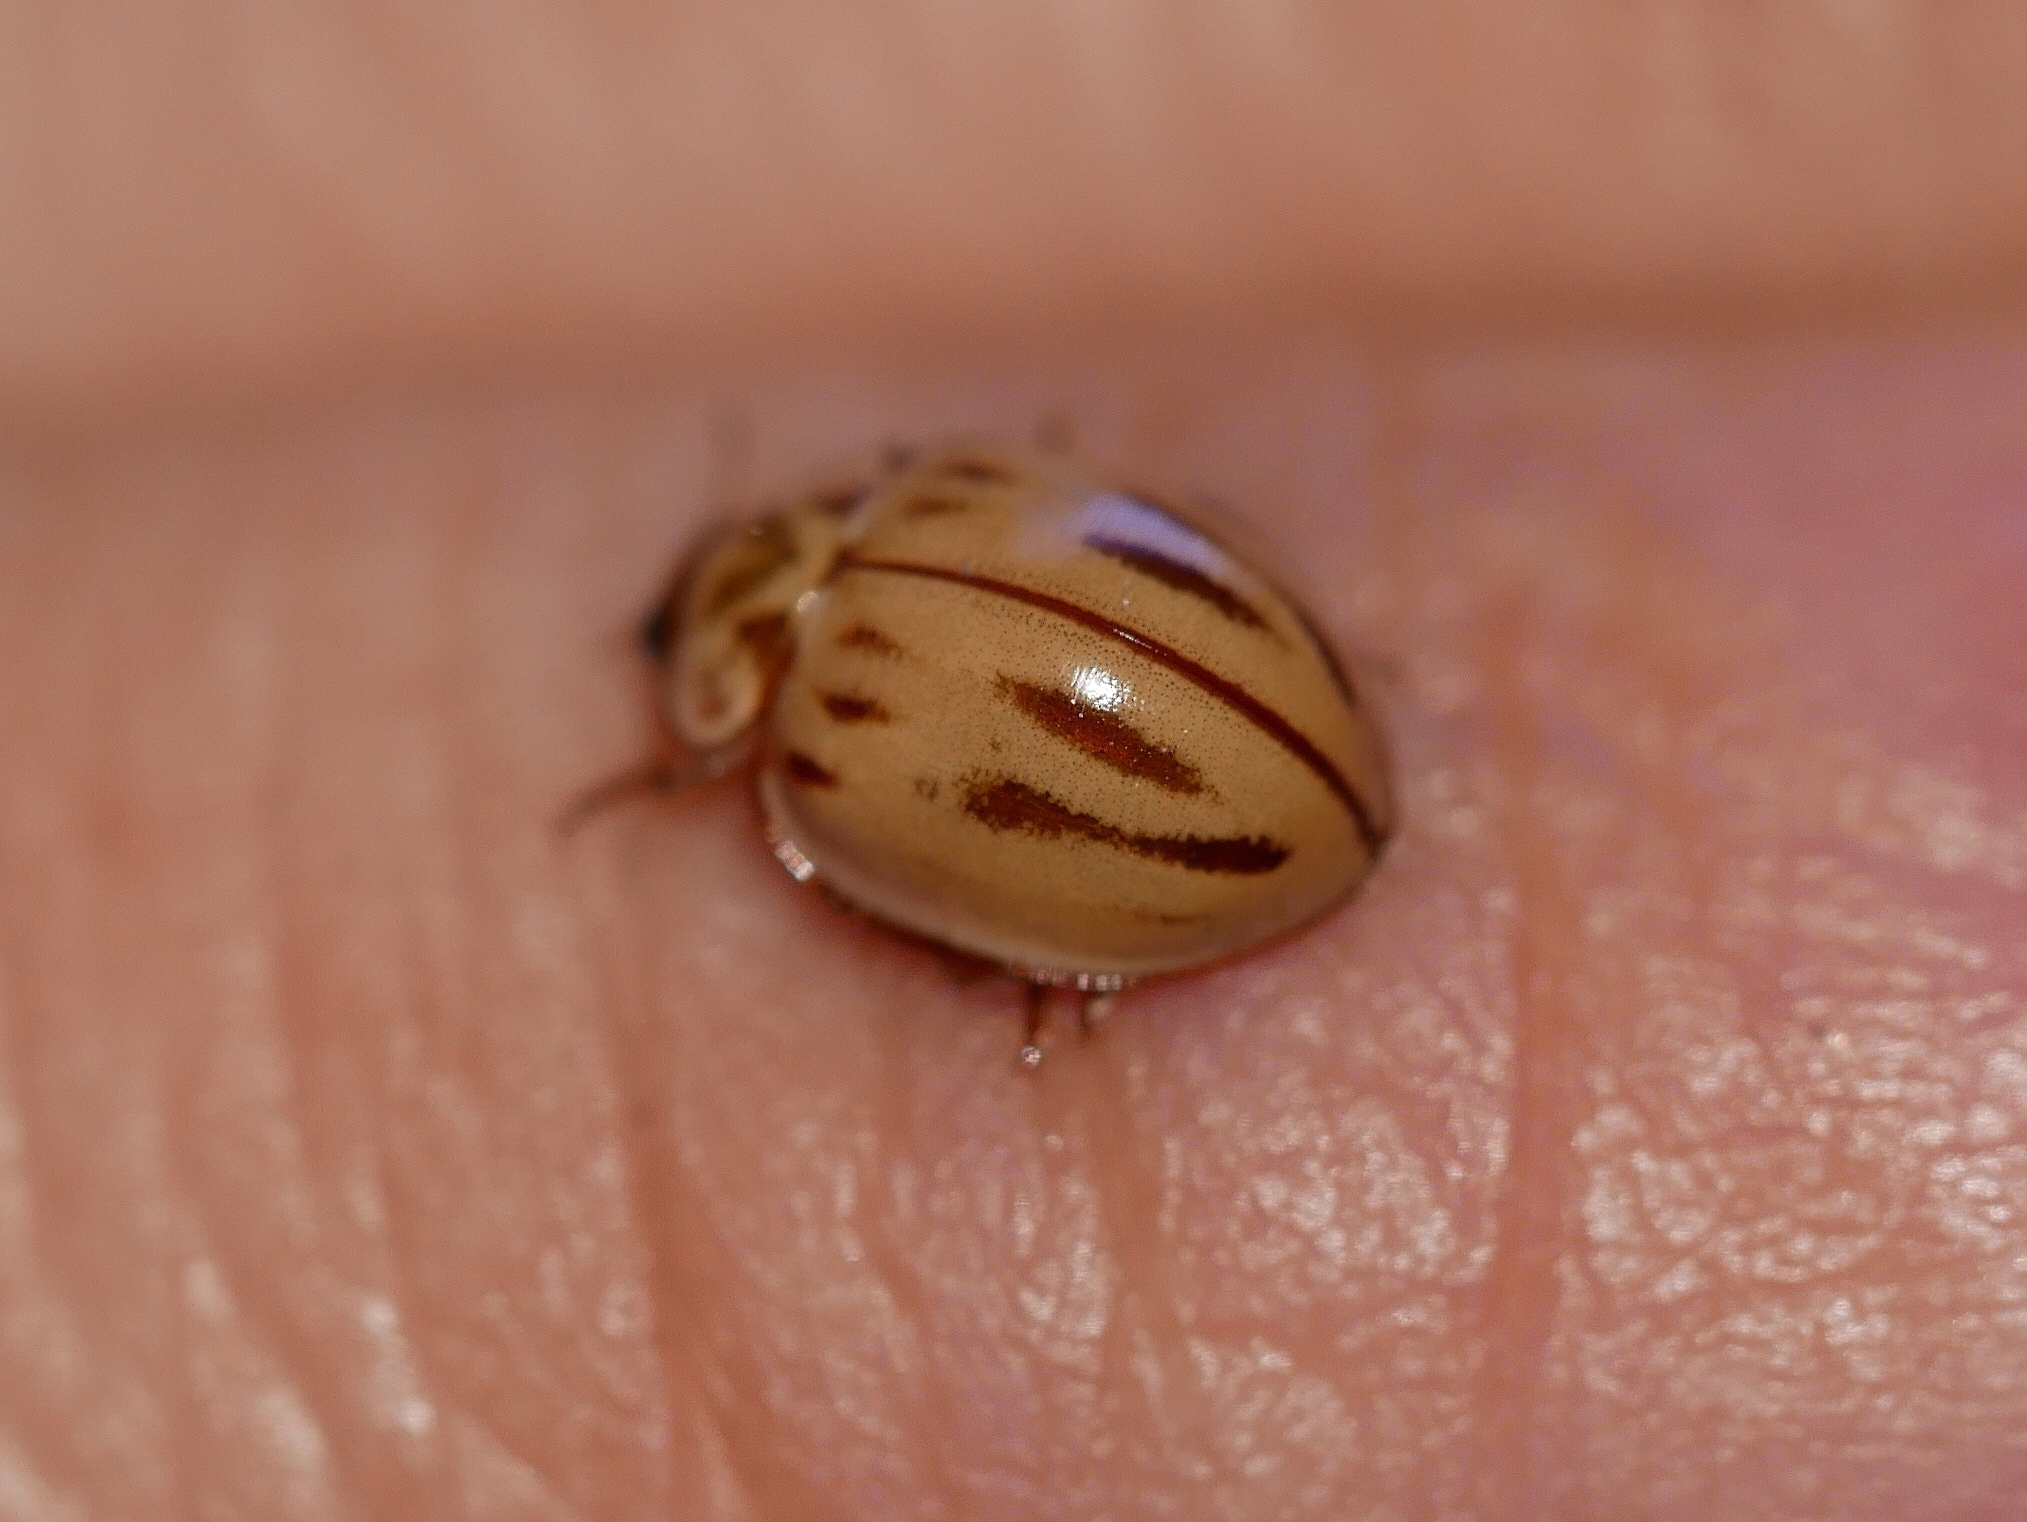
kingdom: Animalia
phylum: Arthropoda
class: Insecta
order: Coleoptera
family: Coccinellidae
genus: Myzia
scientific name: Myzia interrupta
